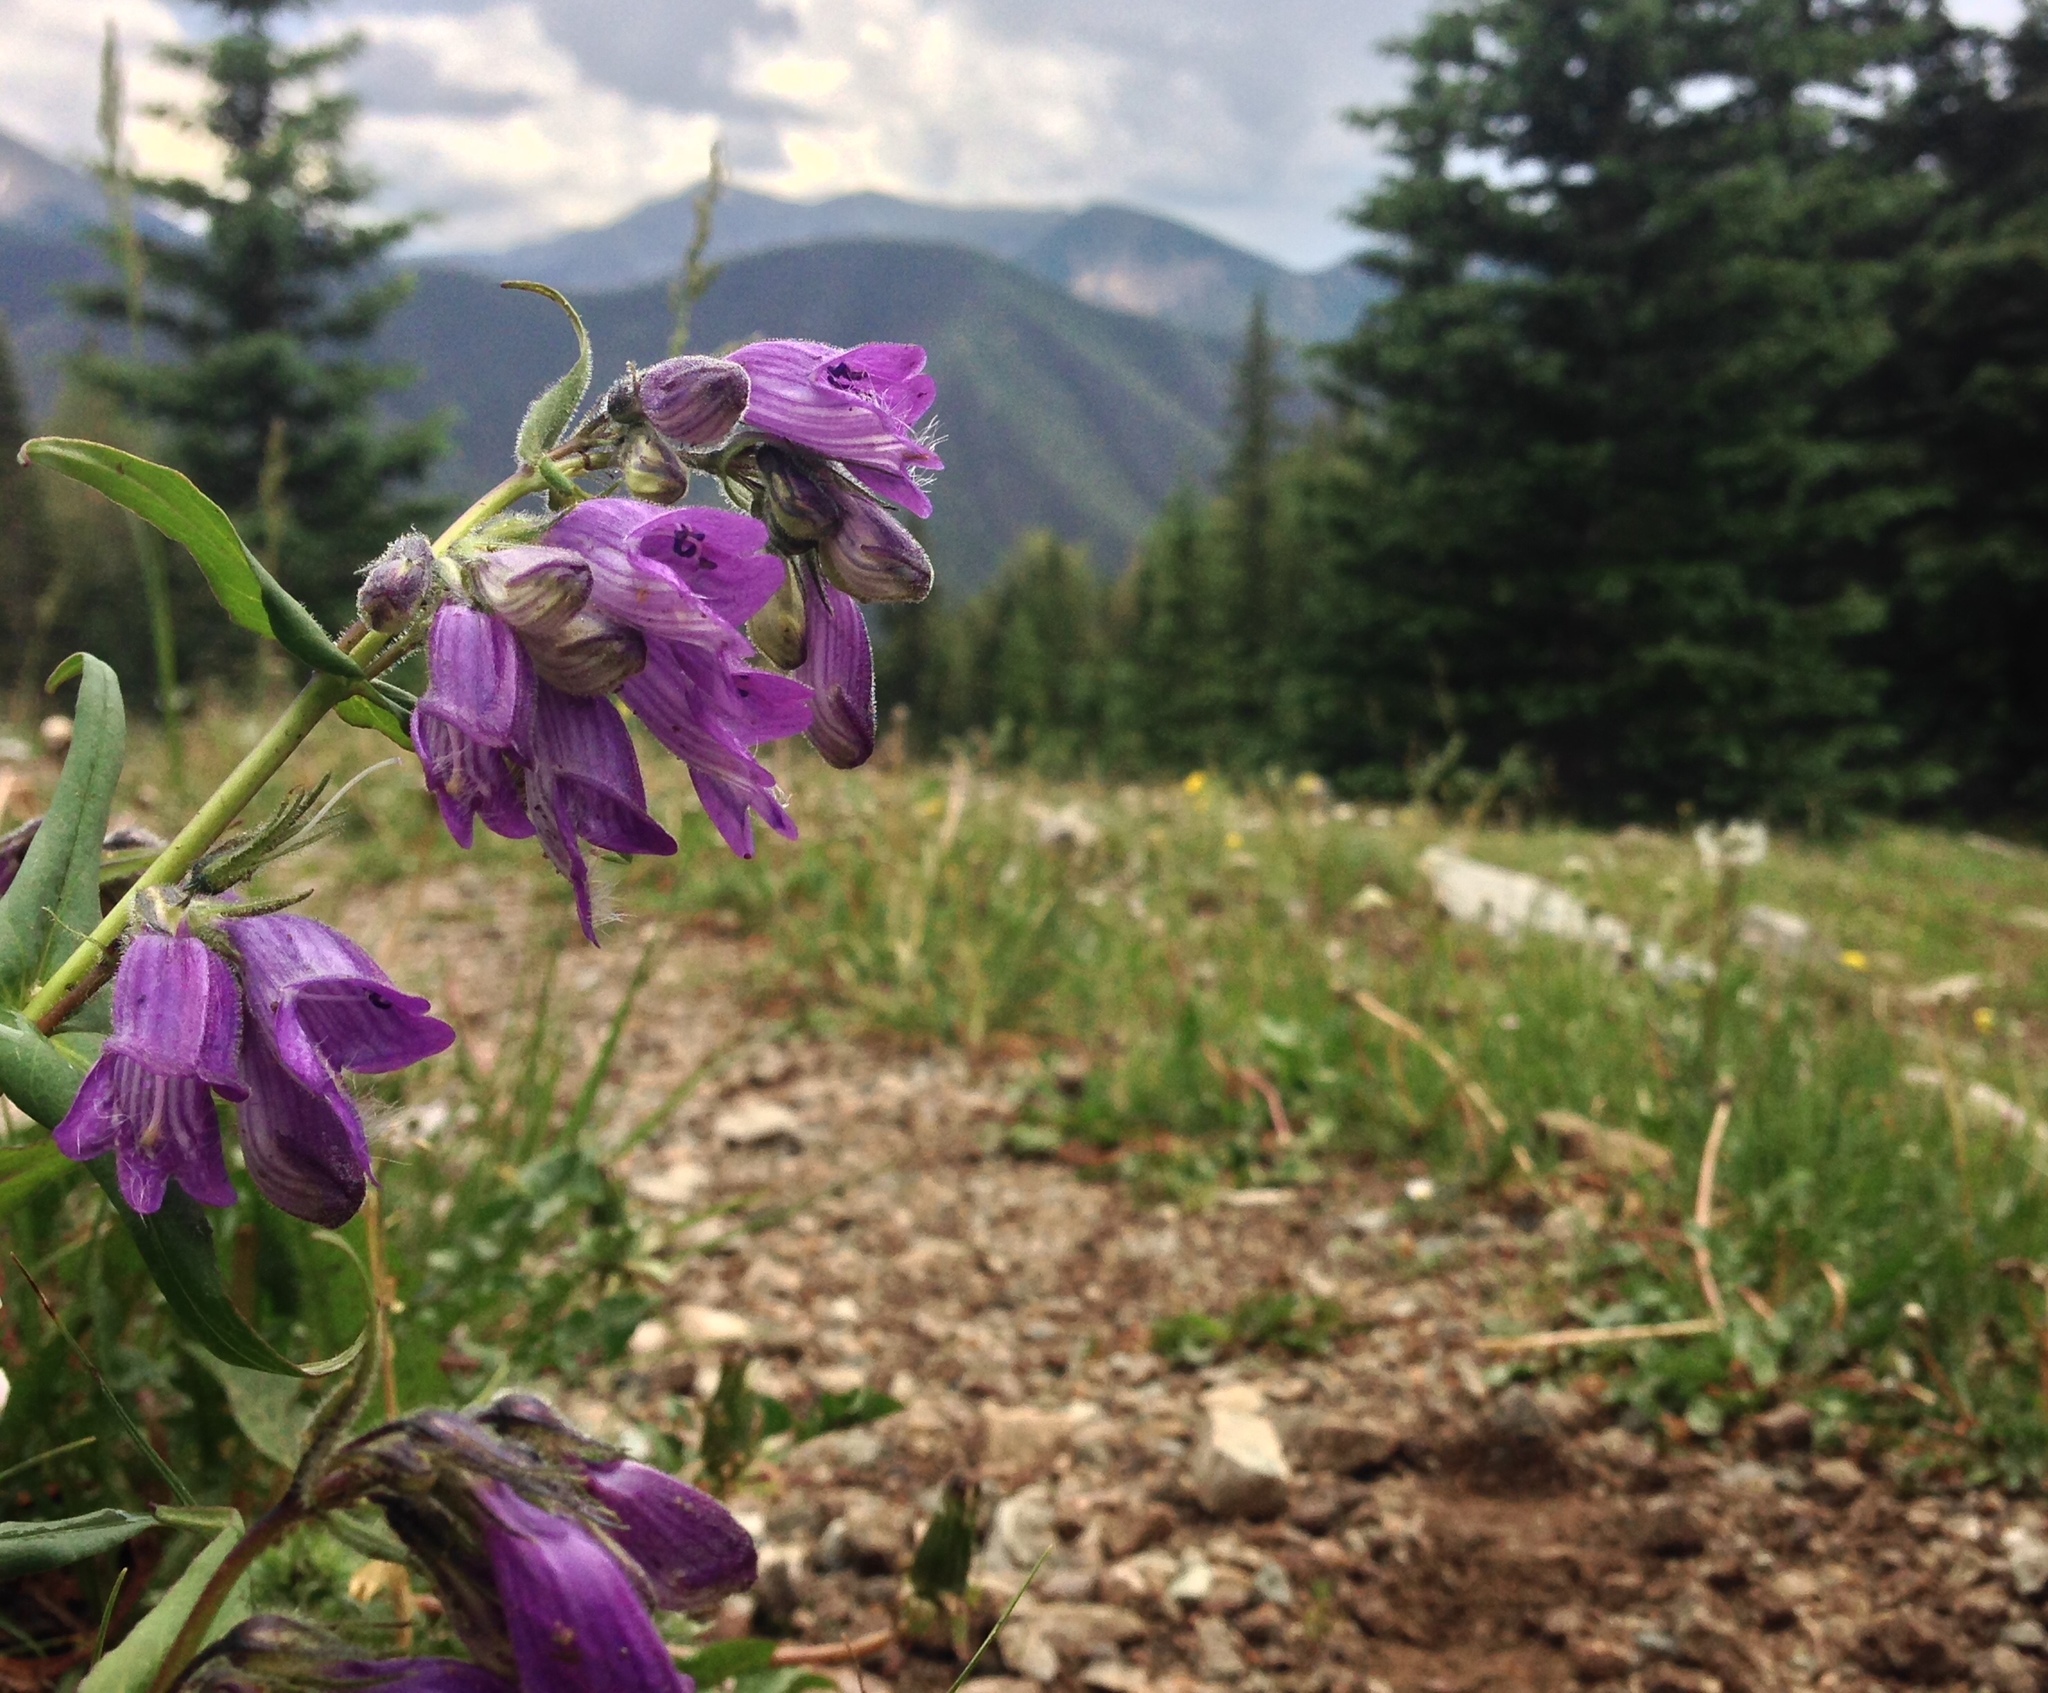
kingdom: Plantae
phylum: Tracheophyta
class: Magnoliopsida
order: Lamiales
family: Plantaginaceae
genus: Penstemon
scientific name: Penstemon whippleanus
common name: Whipple's penstemon
